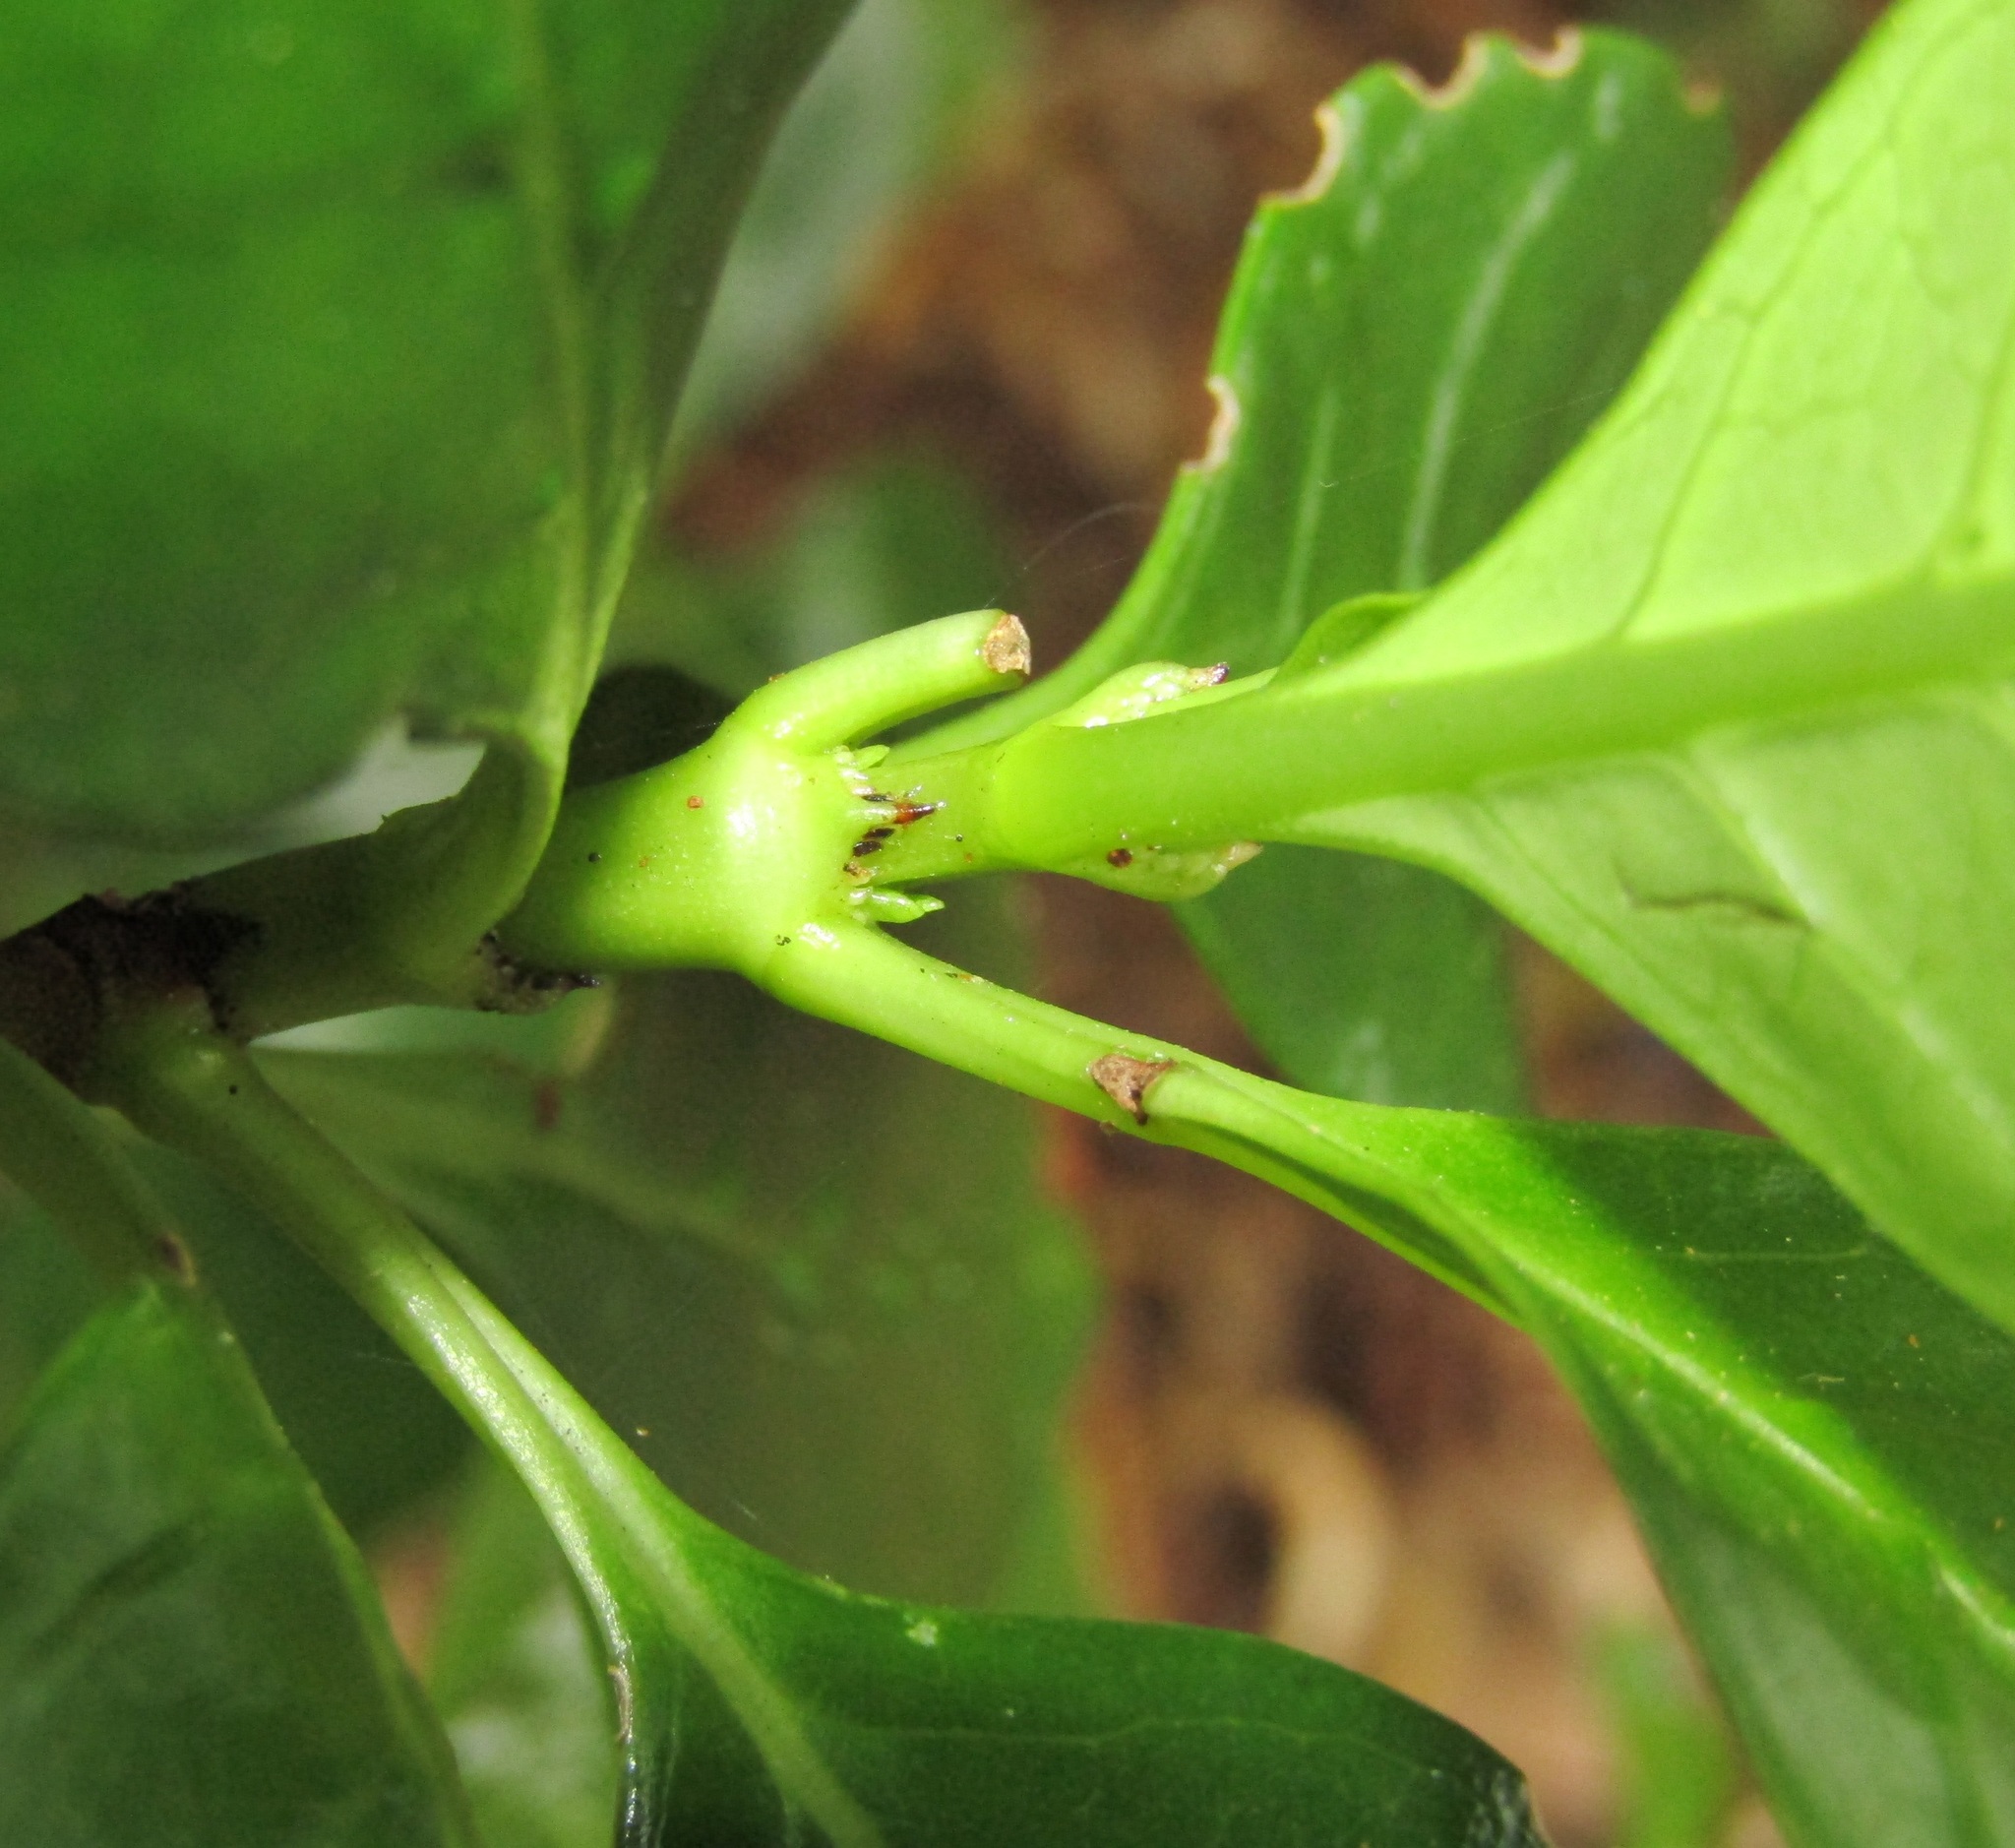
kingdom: Plantae
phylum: Tracheophyta
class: Magnoliopsida
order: Gentianales
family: Rubiaceae
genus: Coprosma
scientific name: Coprosma repens
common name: Tree bedstraw
